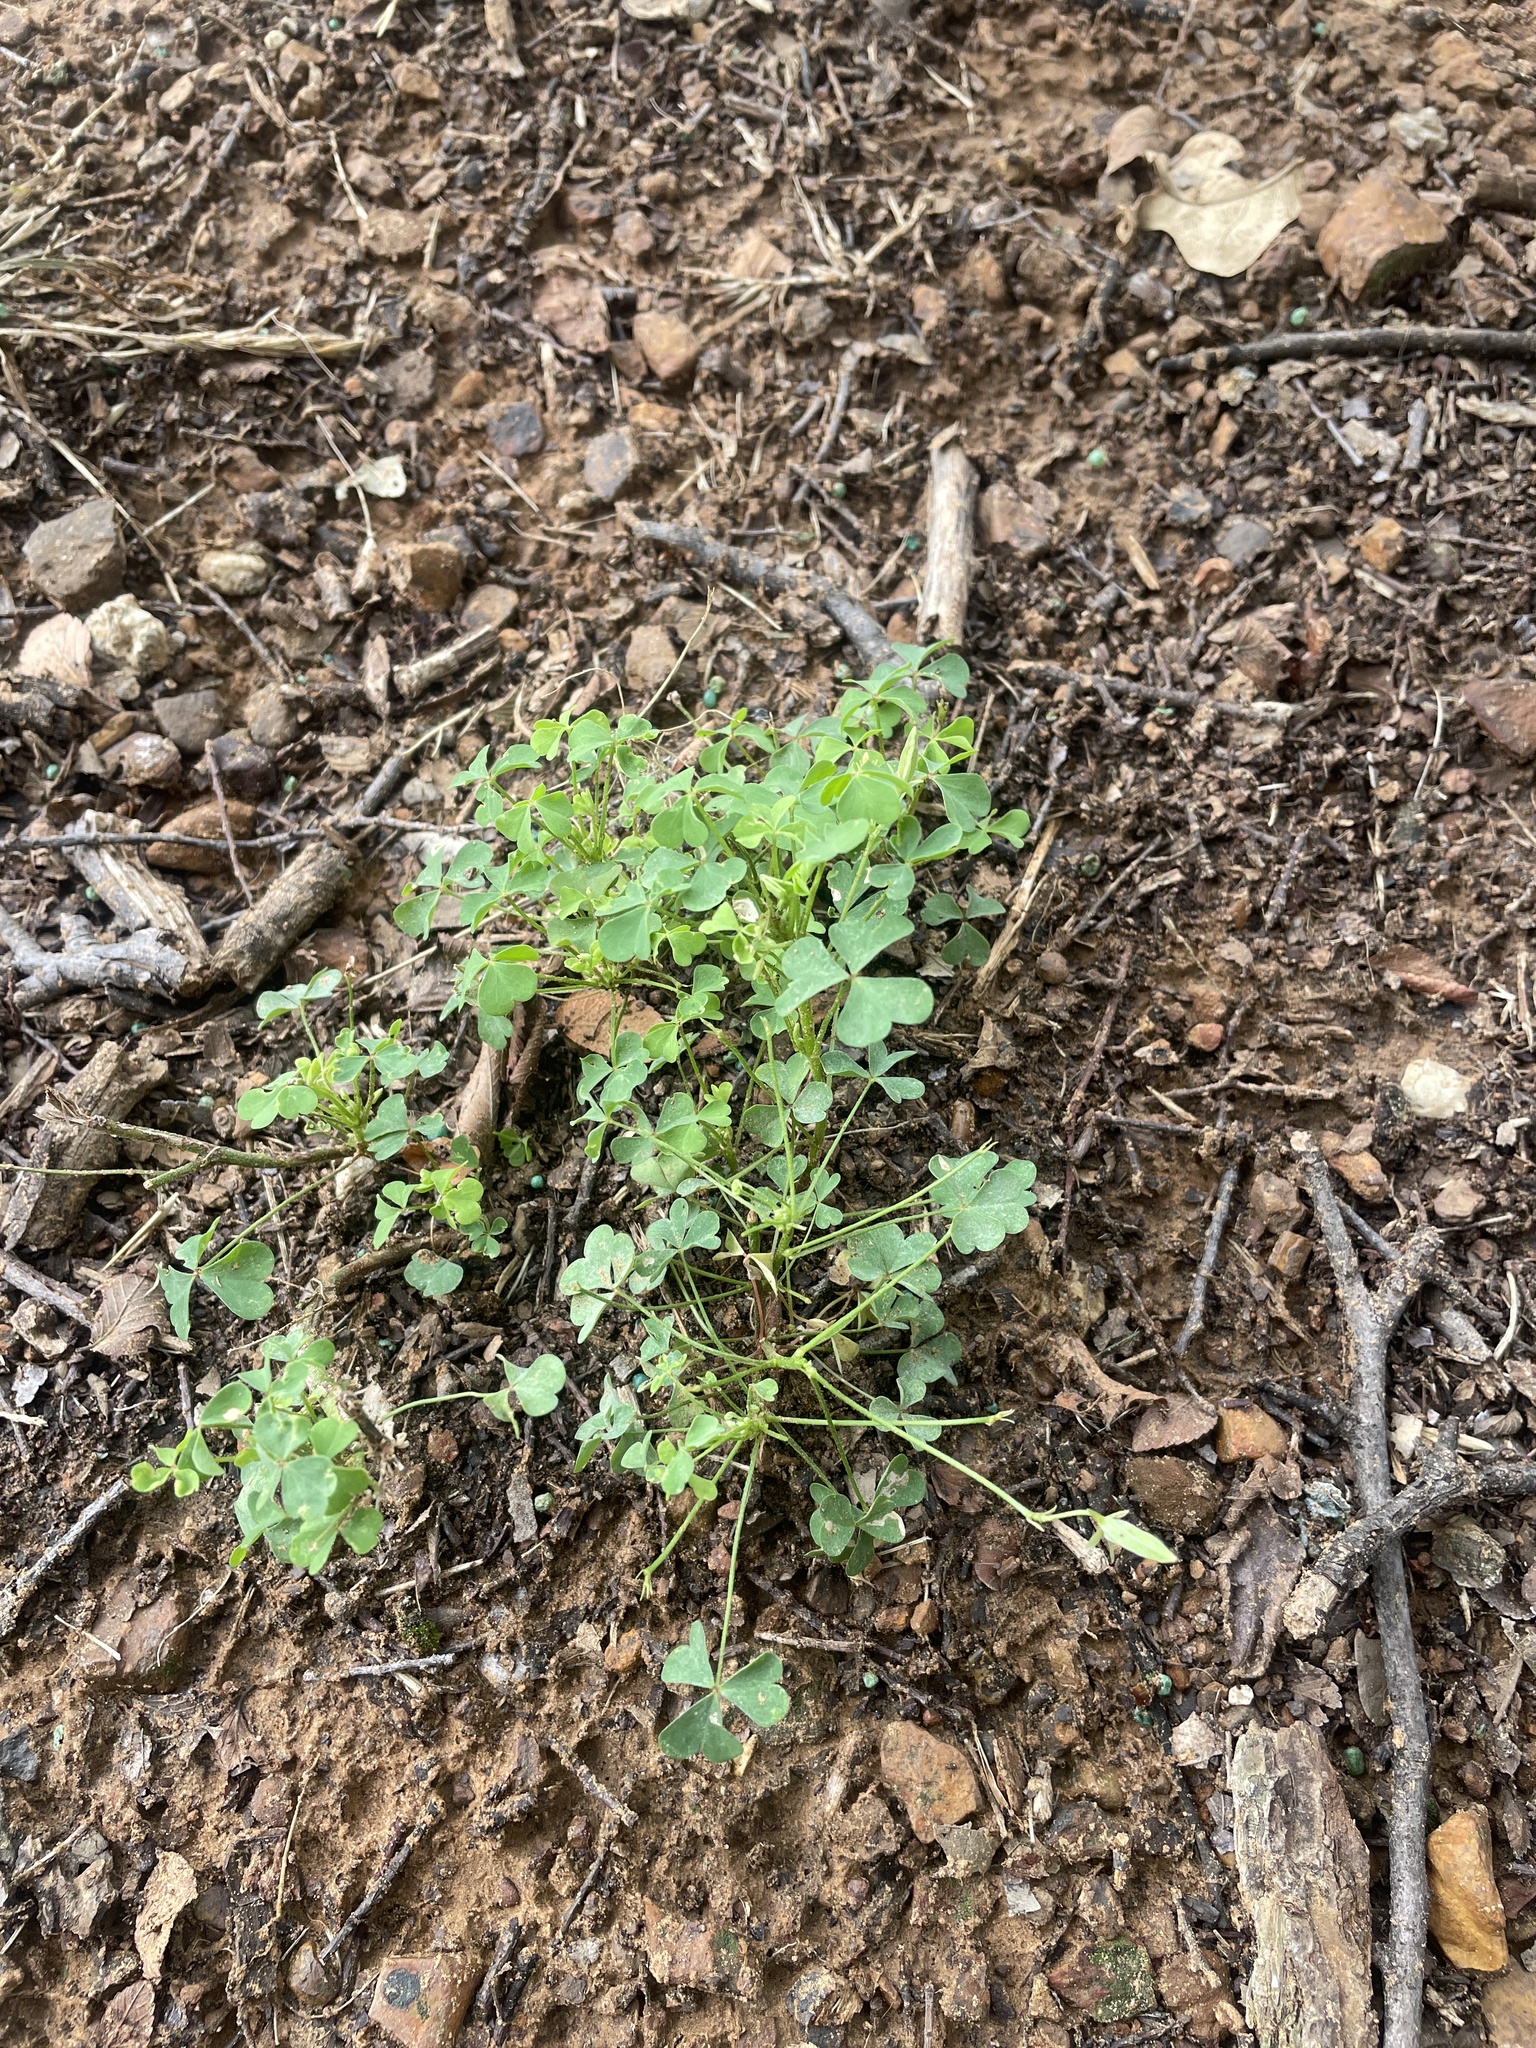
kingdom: Plantae
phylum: Tracheophyta
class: Magnoliopsida
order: Oxalidales
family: Oxalidaceae
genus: Oxalis
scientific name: Oxalis dillenii
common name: Sussex yellow-sorrel
